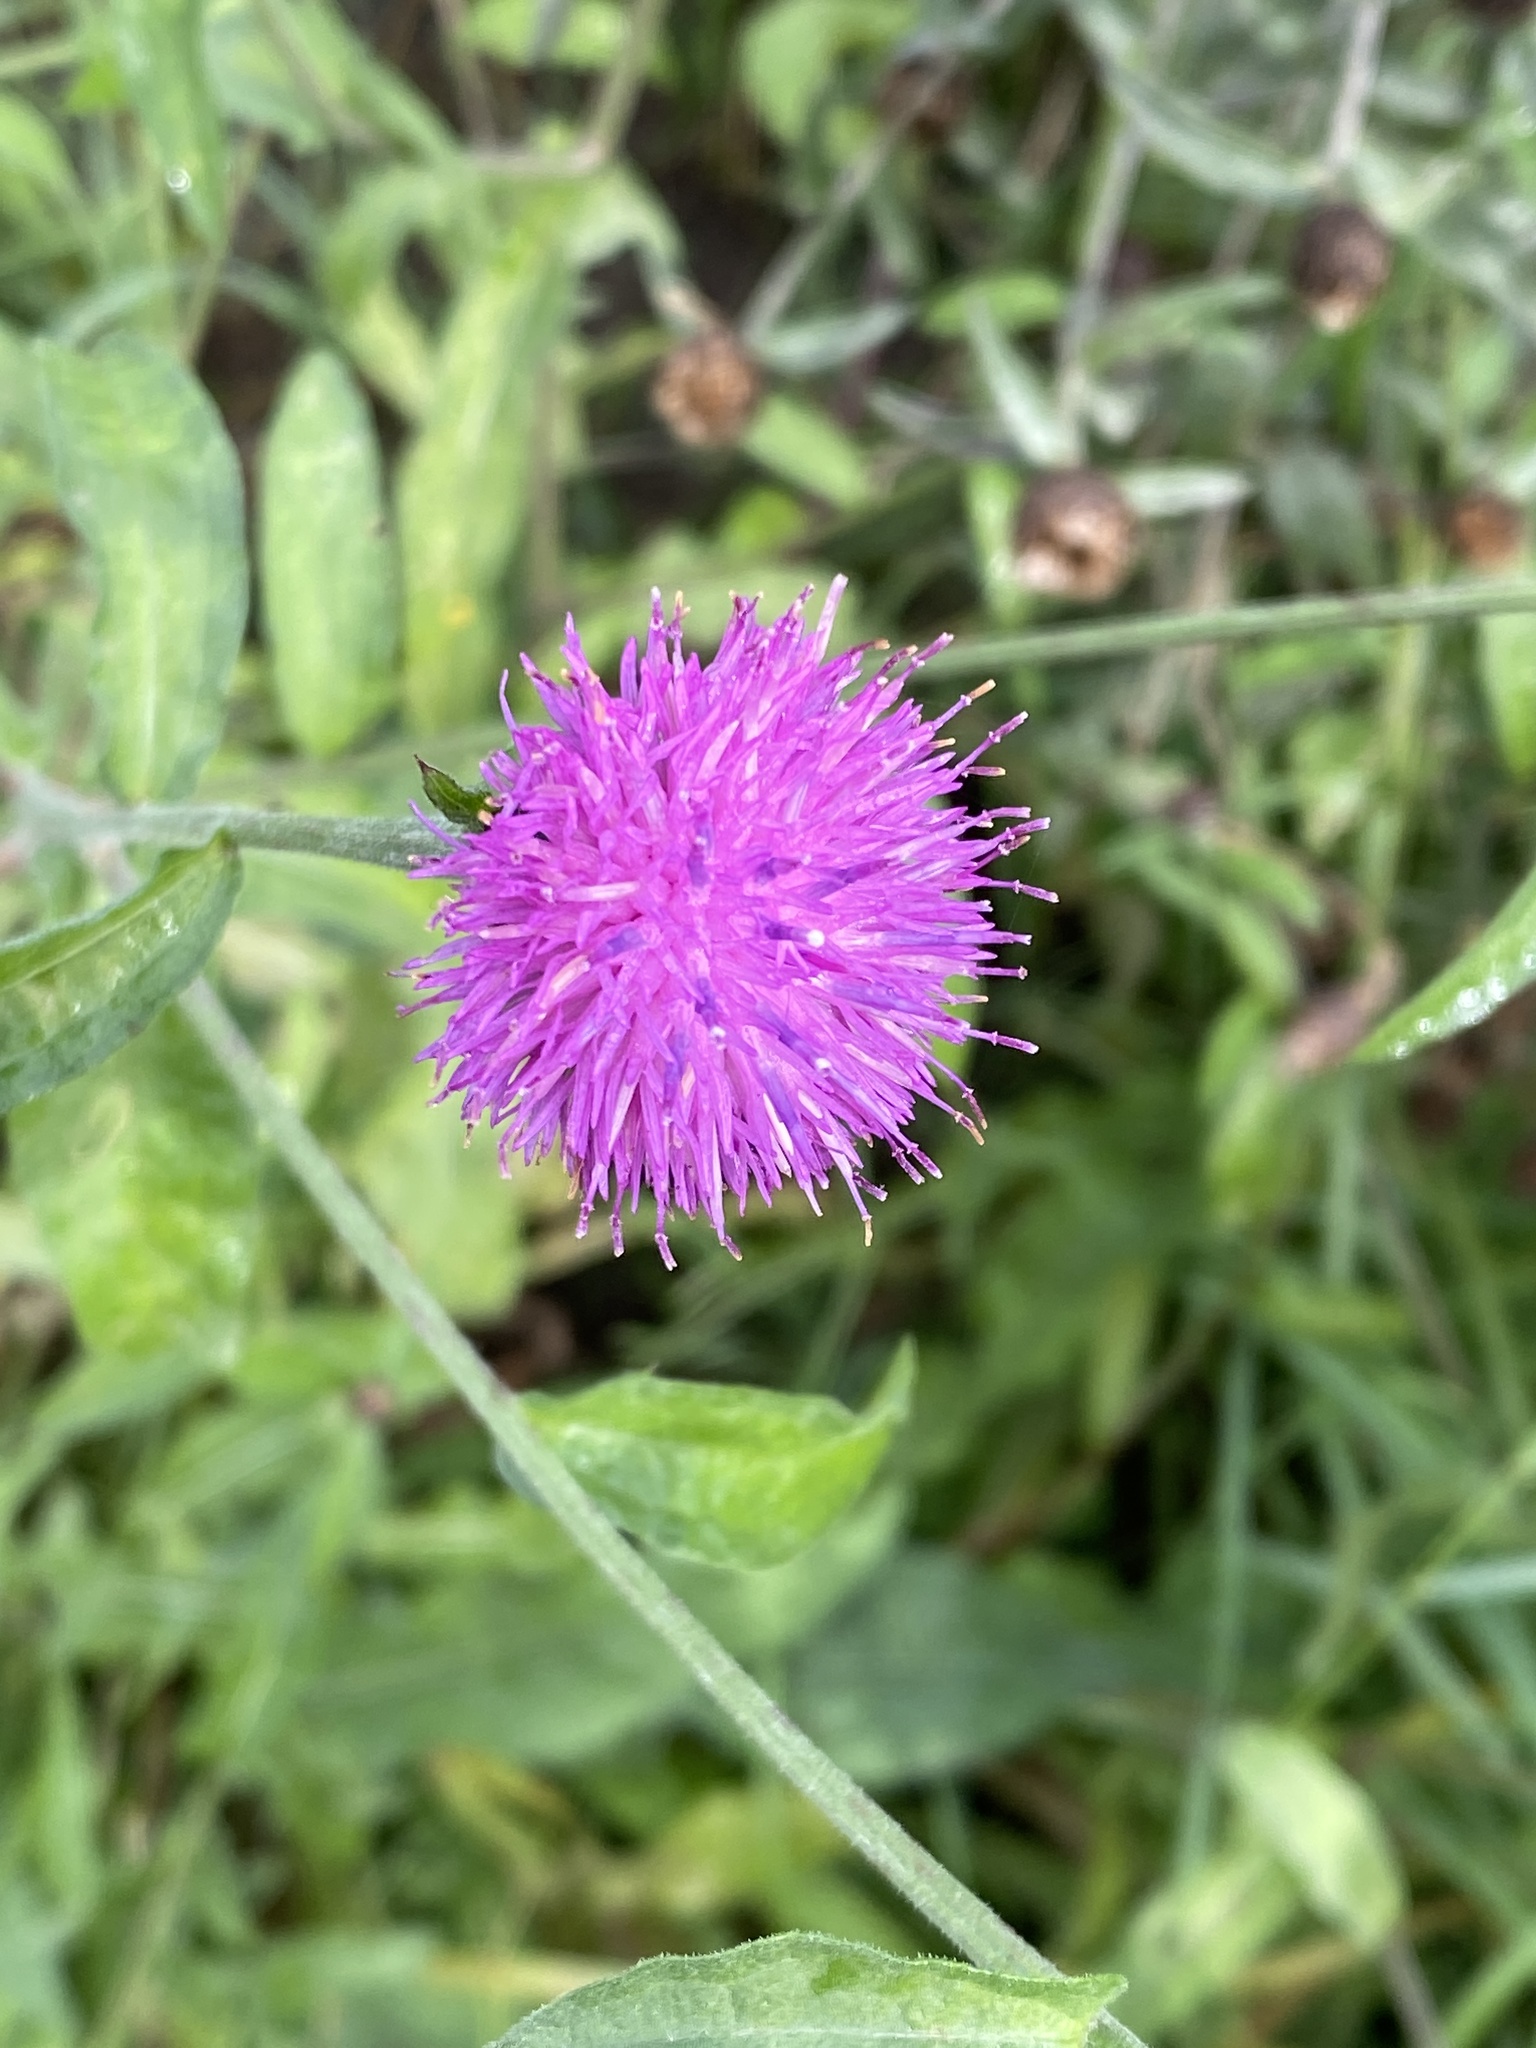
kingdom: Plantae
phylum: Tracheophyta
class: Magnoliopsida
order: Asterales
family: Asteraceae
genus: Centaurea
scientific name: Centaurea nigra
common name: Lesser knapweed
